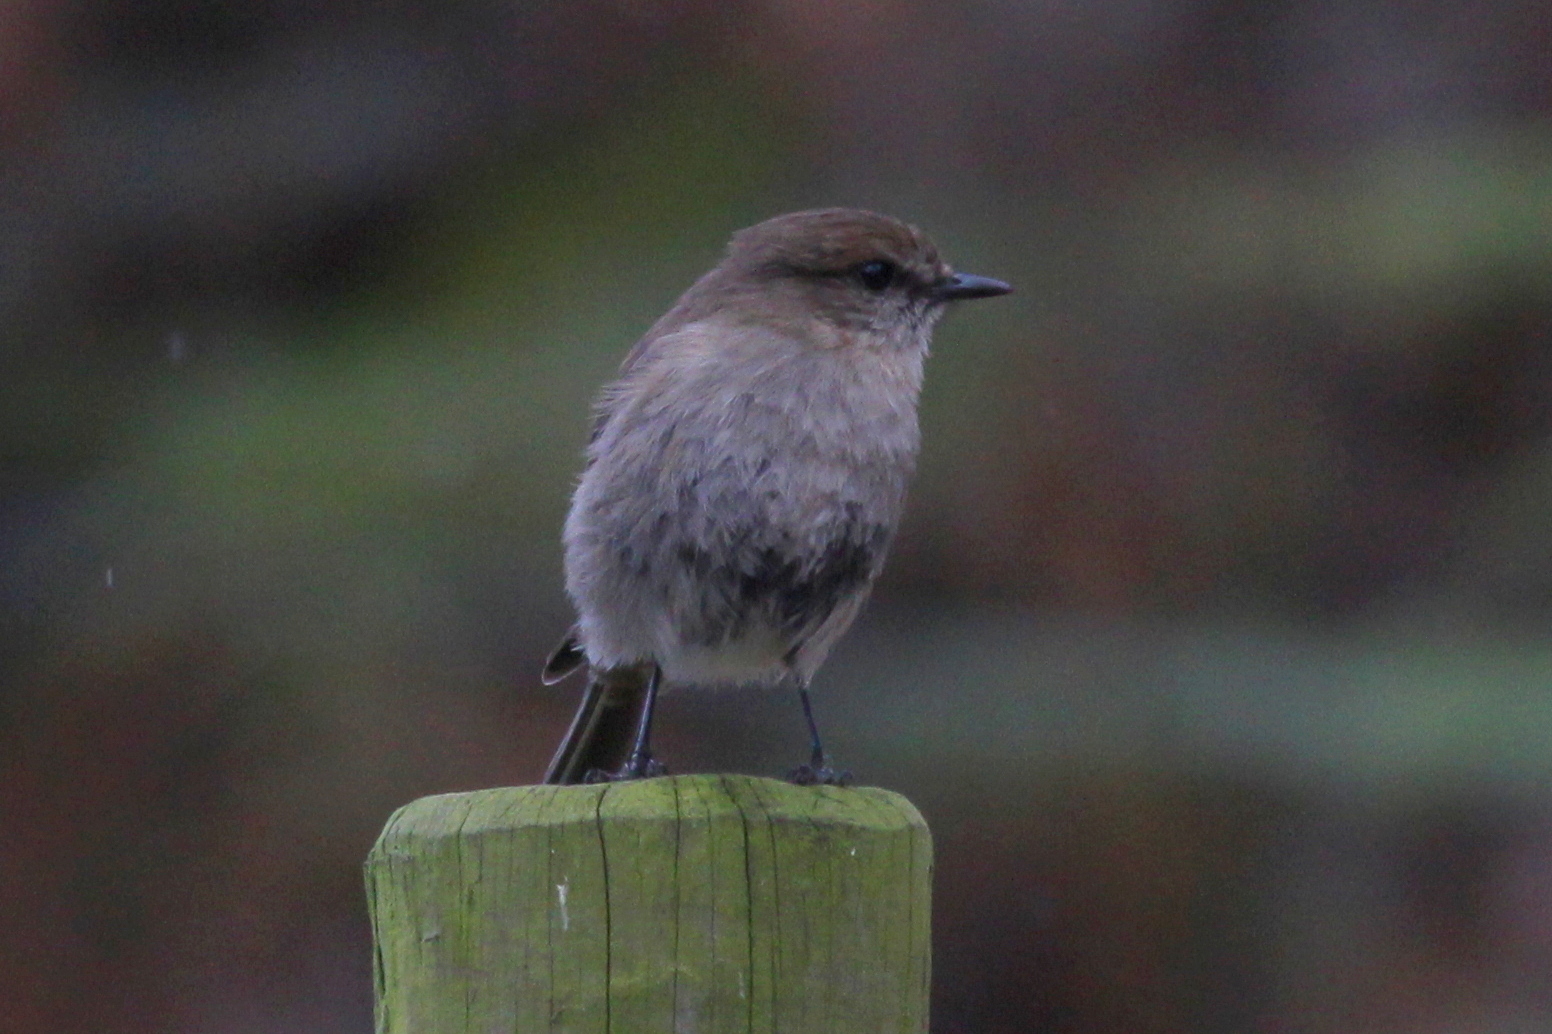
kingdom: Animalia
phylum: Chordata
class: Aves
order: Passeriformes
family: Petroicidae
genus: Melanodryas
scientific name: Melanodryas vittata
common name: Dusky robin
